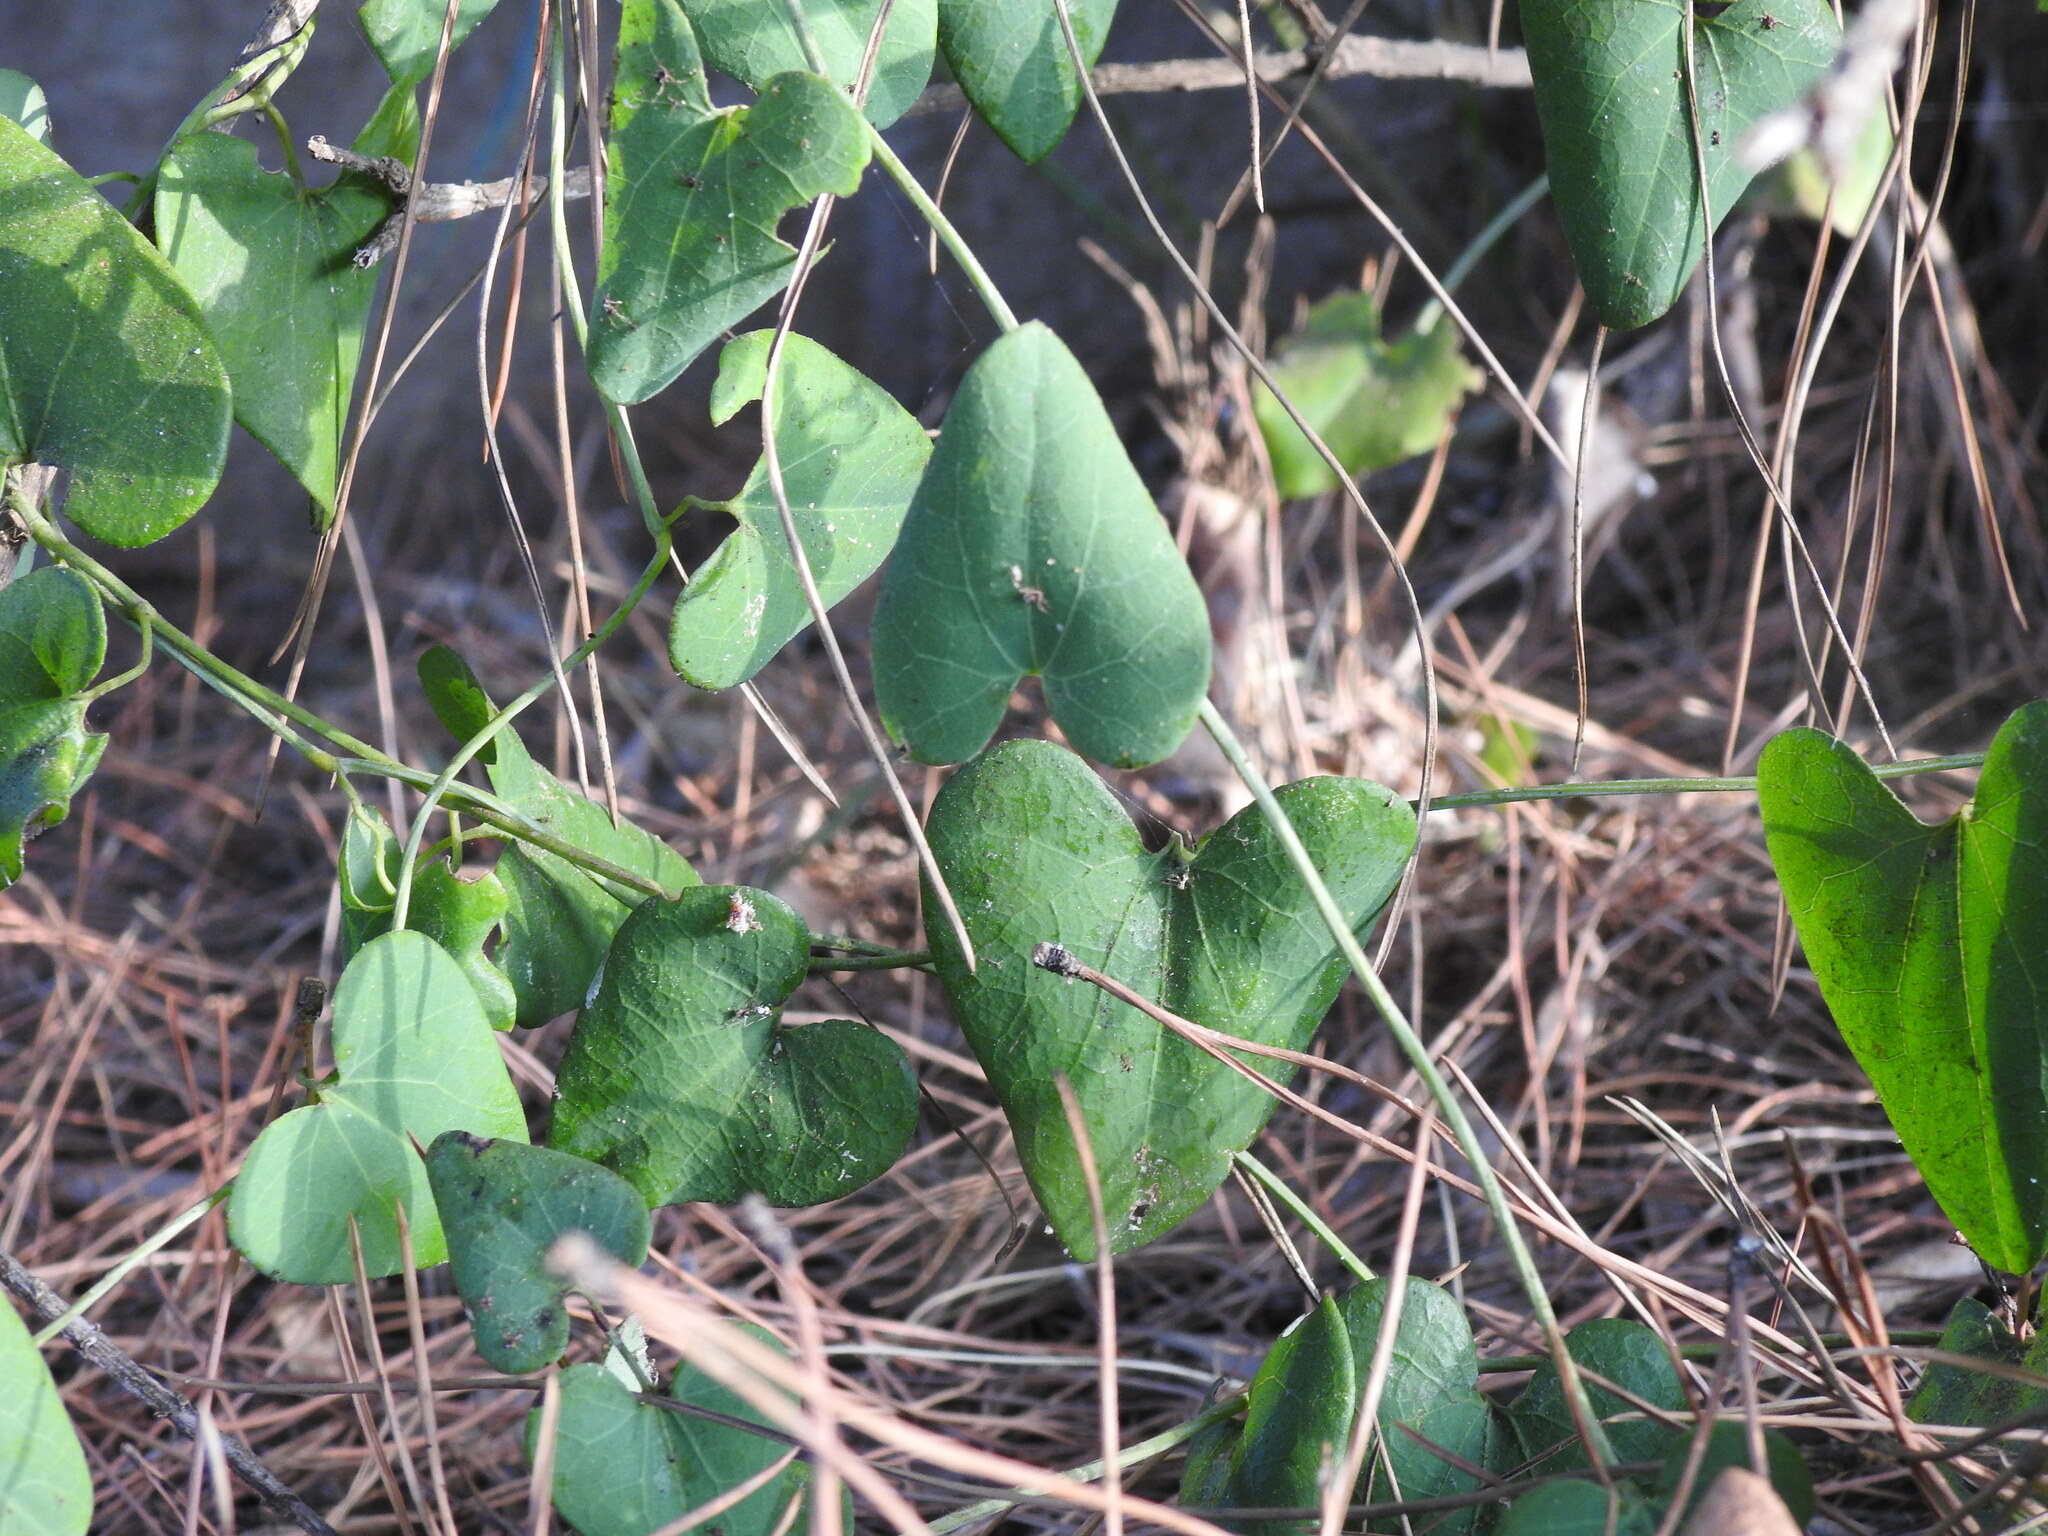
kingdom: Plantae
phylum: Tracheophyta
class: Magnoliopsida
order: Piperales
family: Aristolochiaceae
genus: Aristolochia
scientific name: Aristolochia baetica
